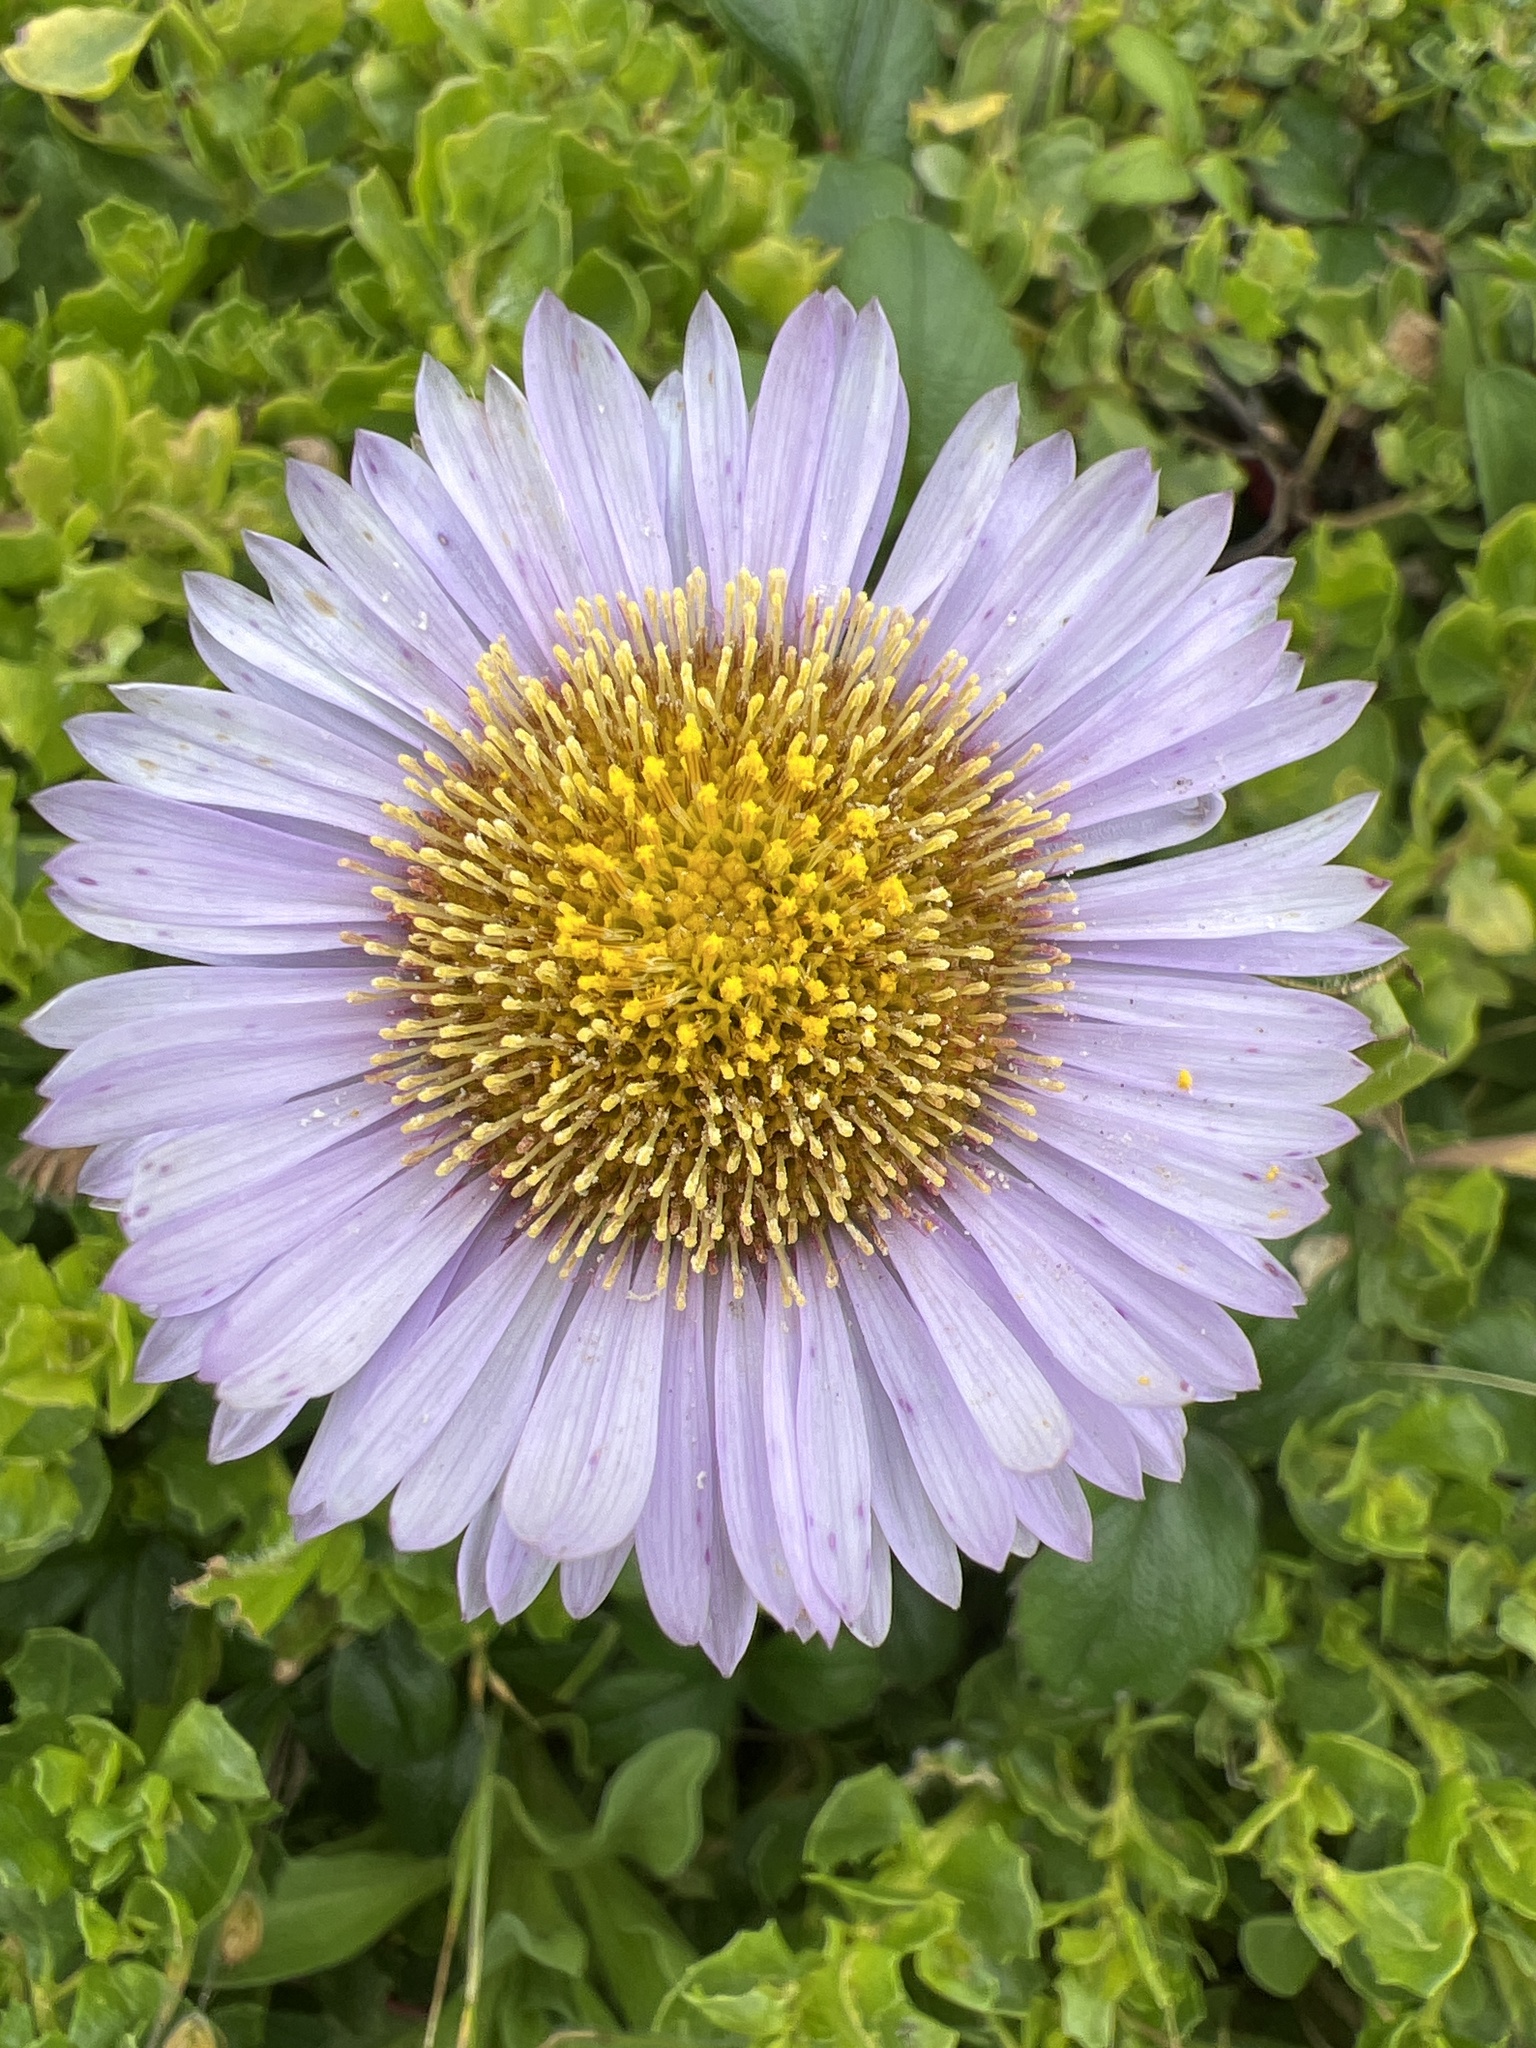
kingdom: Plantae
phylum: Tracheophyta
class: Magnoliopsida
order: Asterales
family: Asteraceae
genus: Erigeron
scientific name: Erigeron glaucus
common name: Seaside daisy
